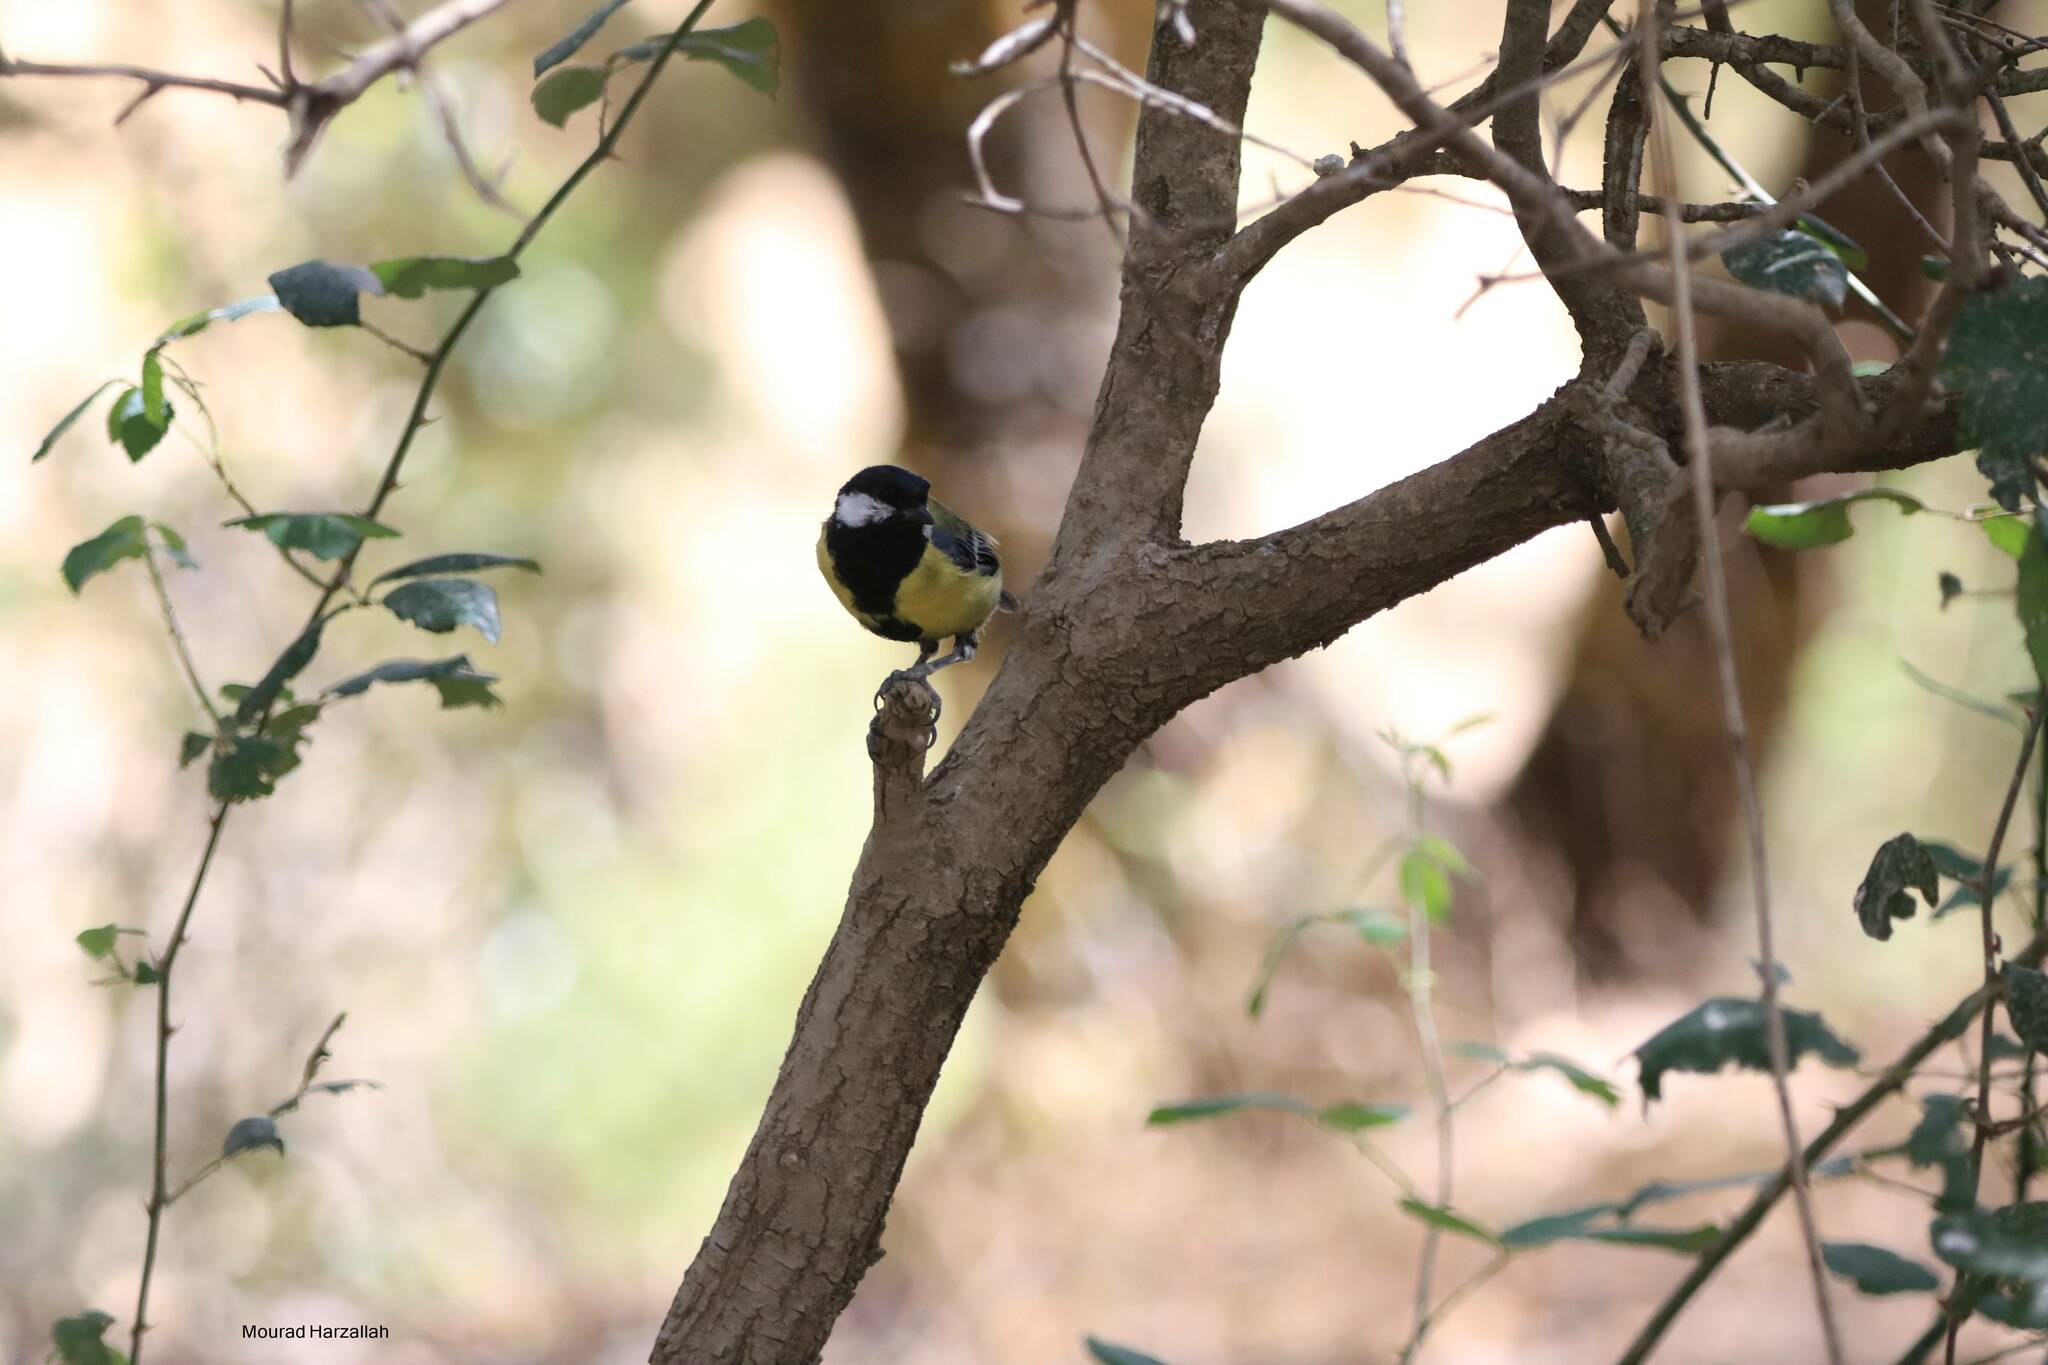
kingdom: Animalia
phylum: Chordata
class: Aves
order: Passeriformes
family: Paridae
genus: Parus
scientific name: Parus major
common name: Great tit
